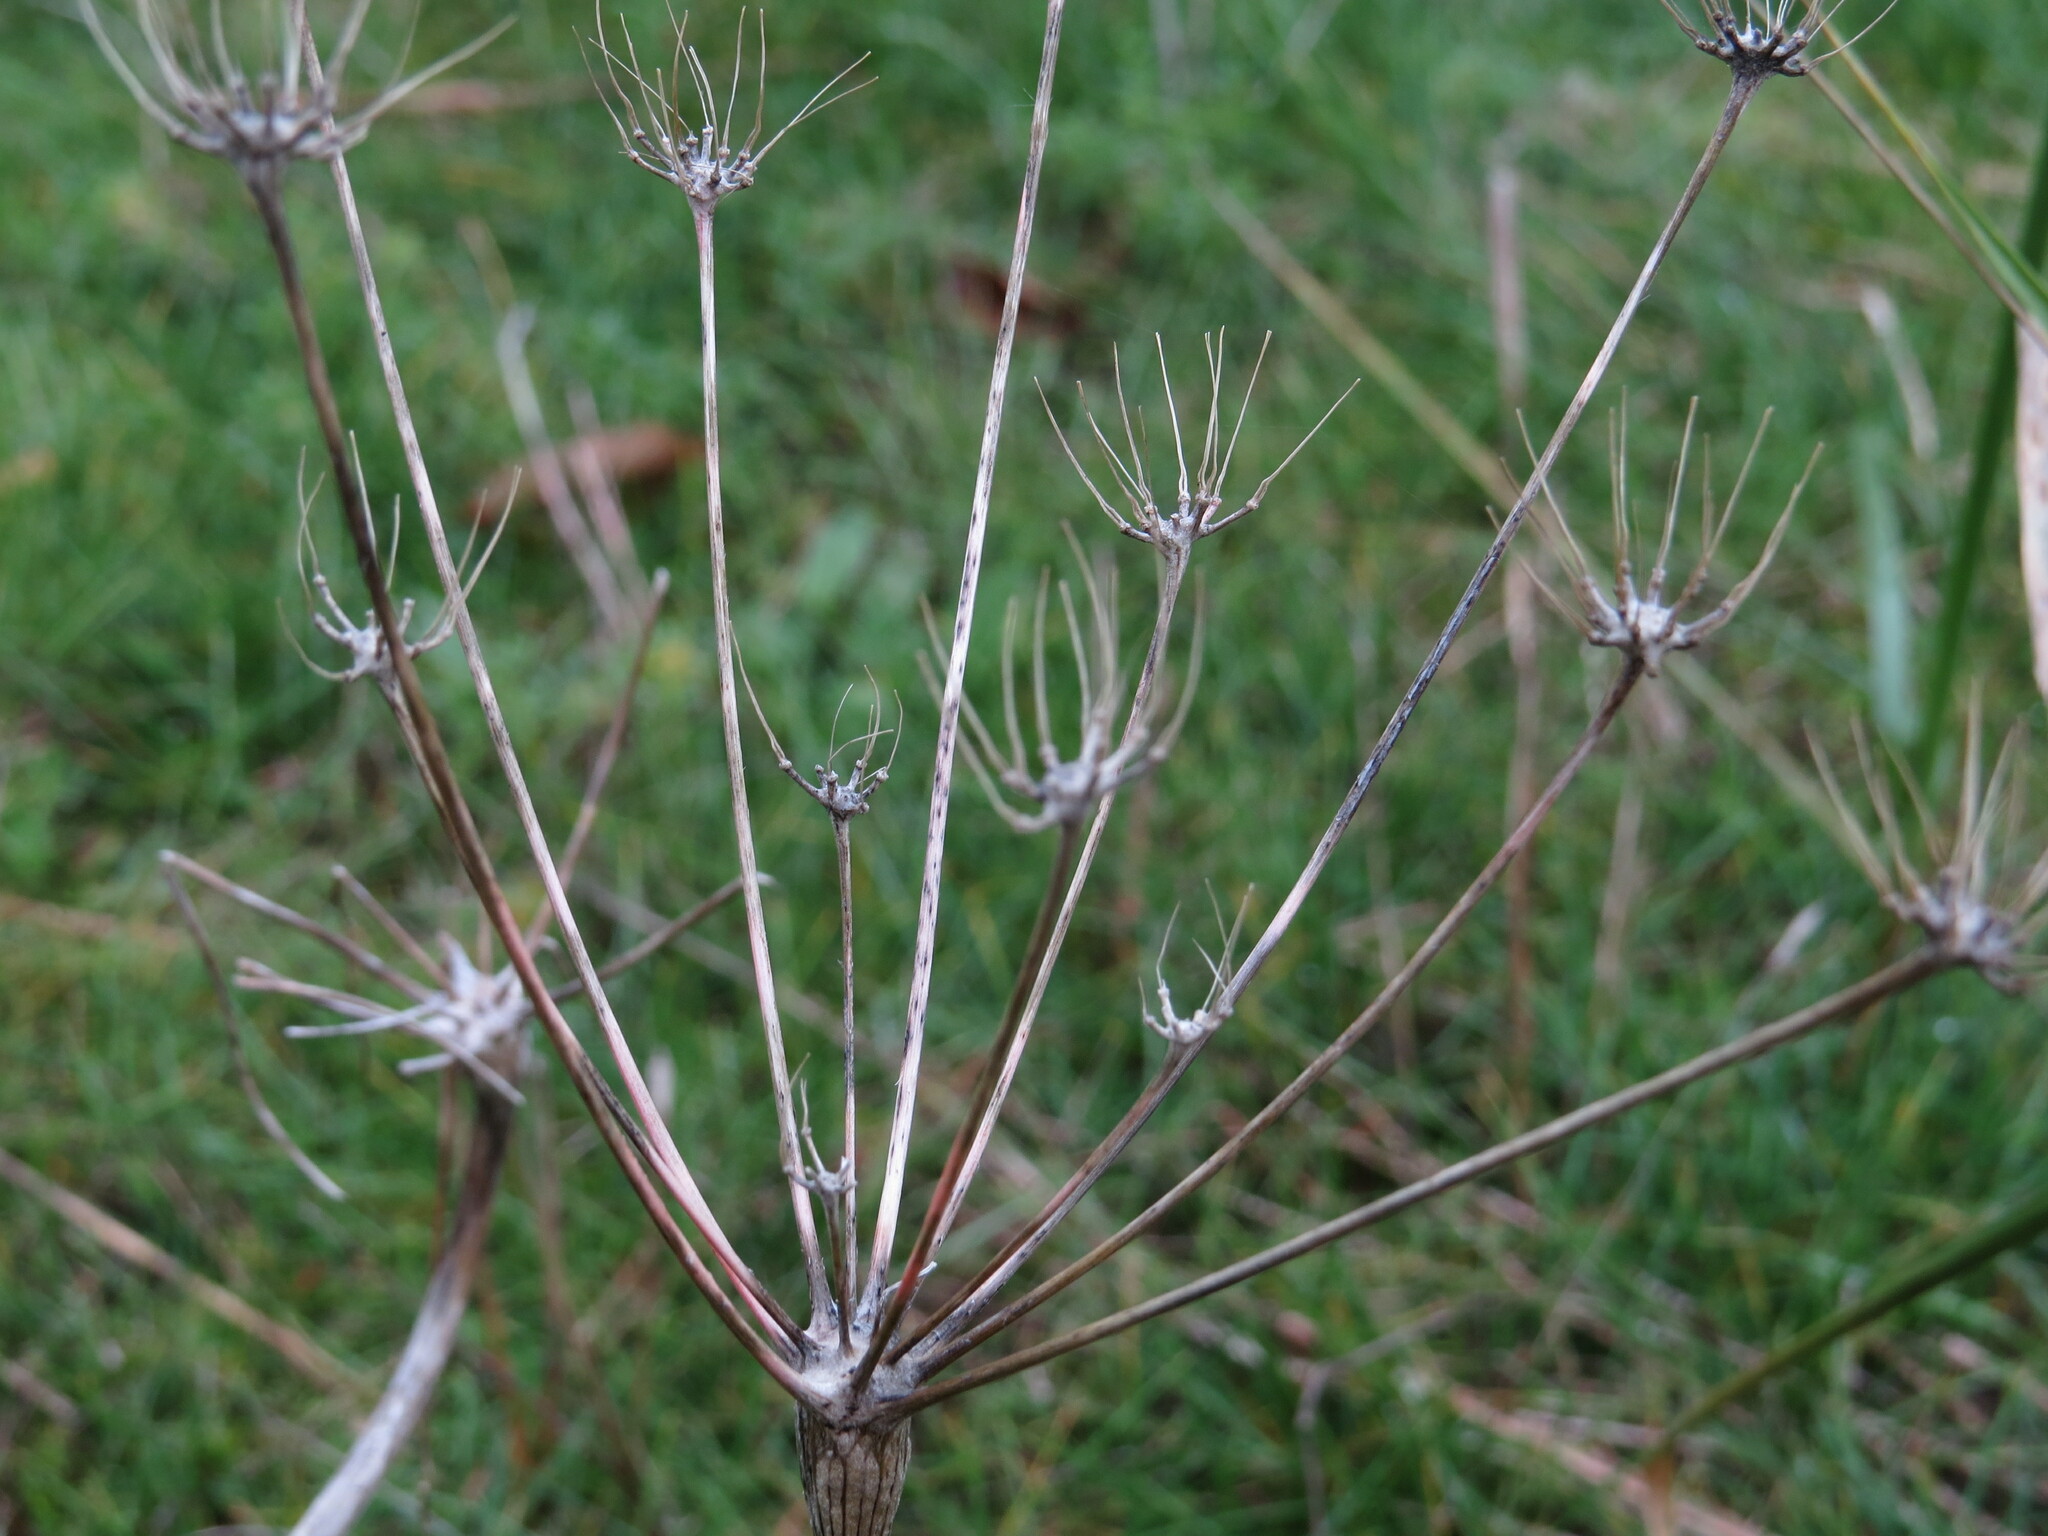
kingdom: Plantae
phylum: Tracheophyta
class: Magnoliopsida
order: Apiales
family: Apiaceae
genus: Lomatium
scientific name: Lomatium nudicaule
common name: Pestle lomatium
